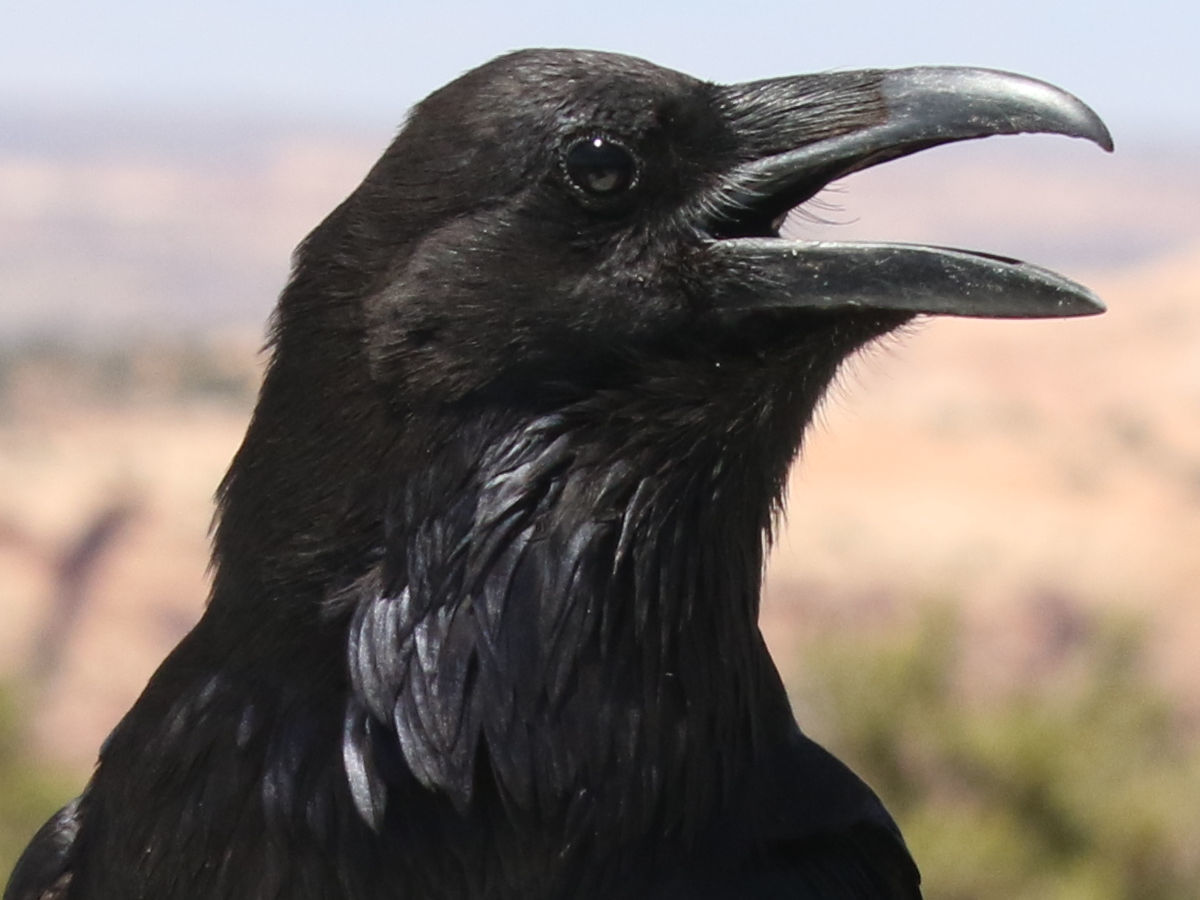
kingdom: Animalia
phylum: Chordata
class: Aves
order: Passeriformes
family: Corvidae
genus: Corvus
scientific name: Corvus corax
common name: Common raven
